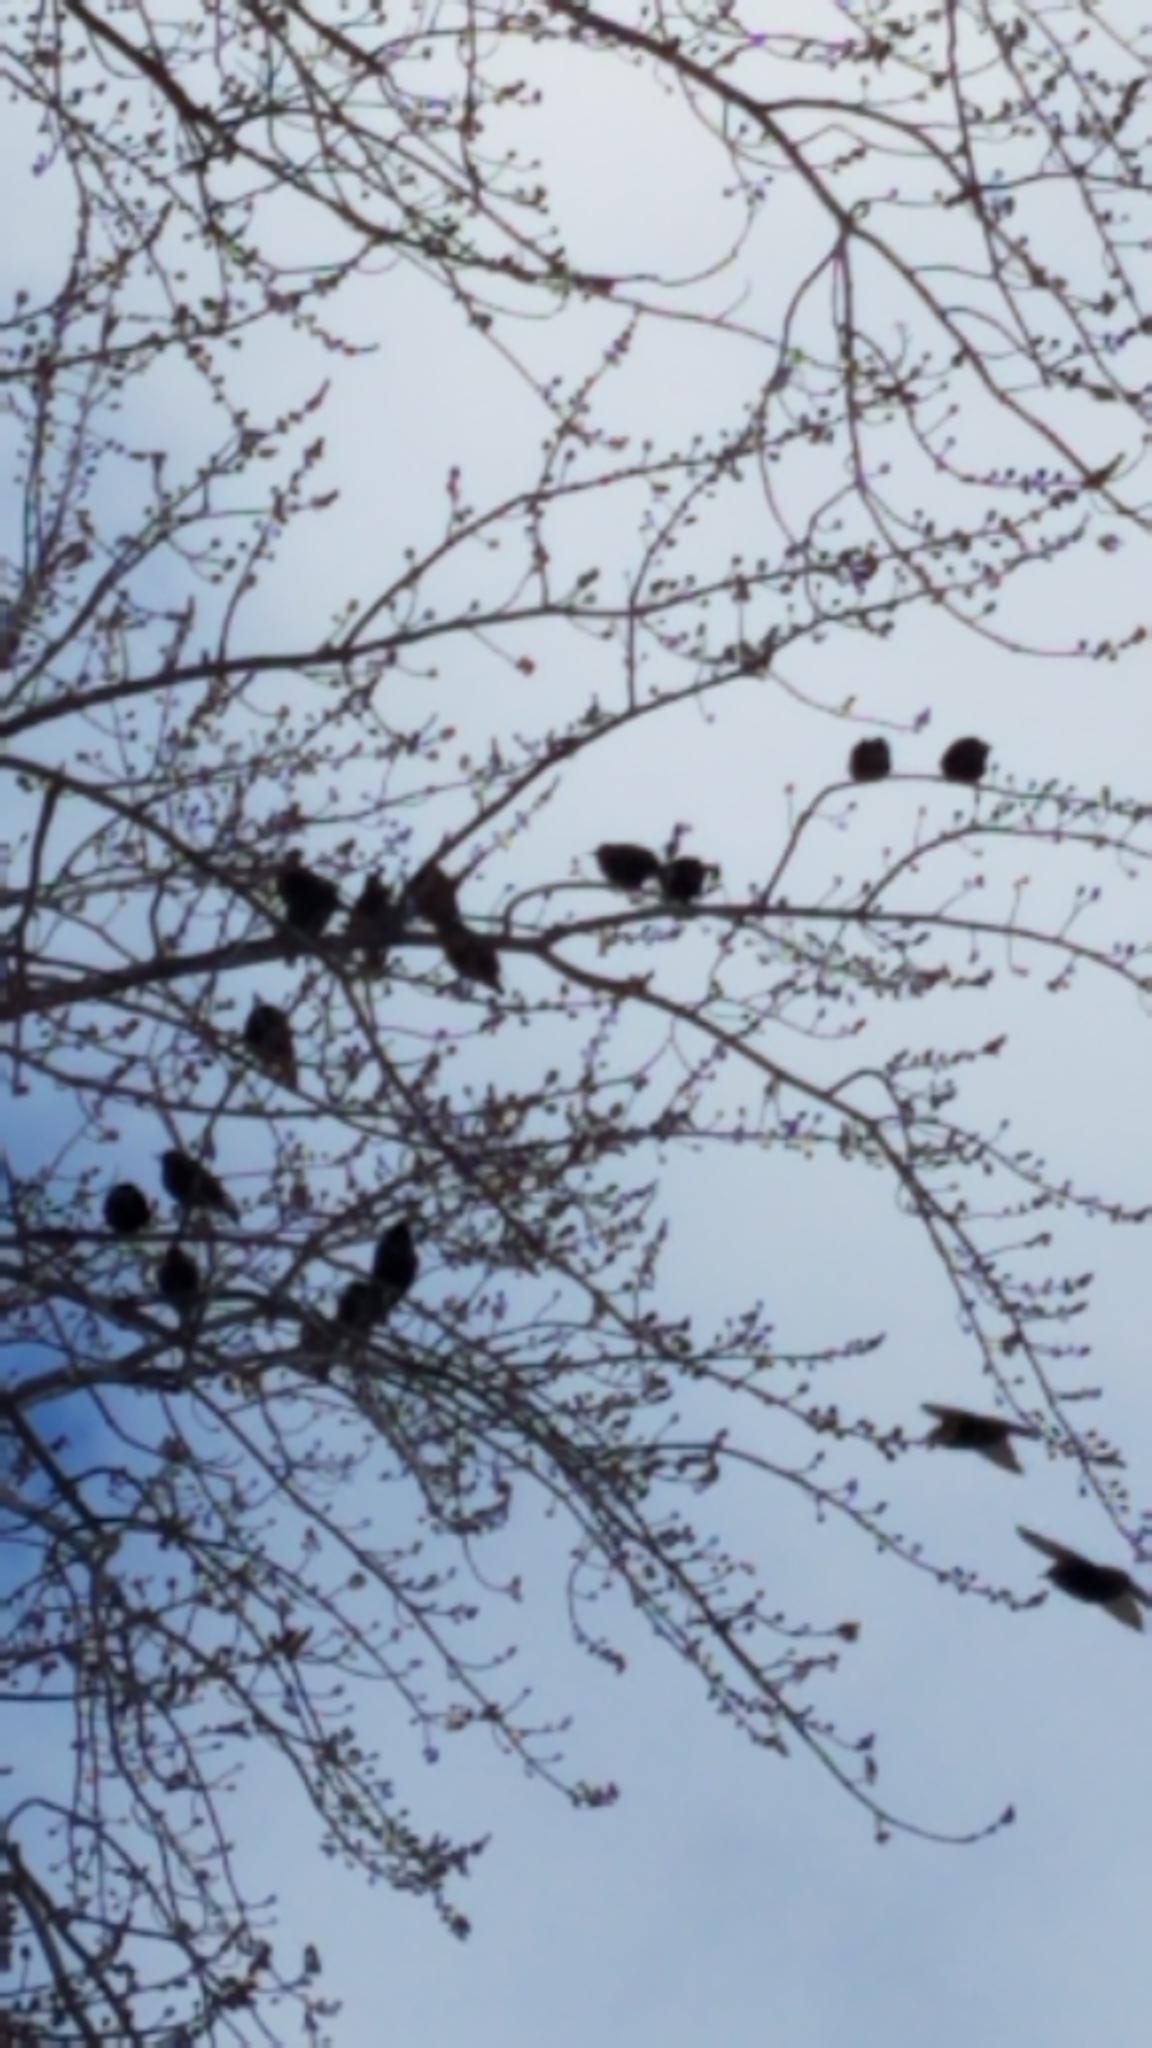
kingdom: Animalia
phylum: Chordata
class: Aves
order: Passeriformes
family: Sturnidae
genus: Sturnus
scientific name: Sturnus vulgaris
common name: Common starling
